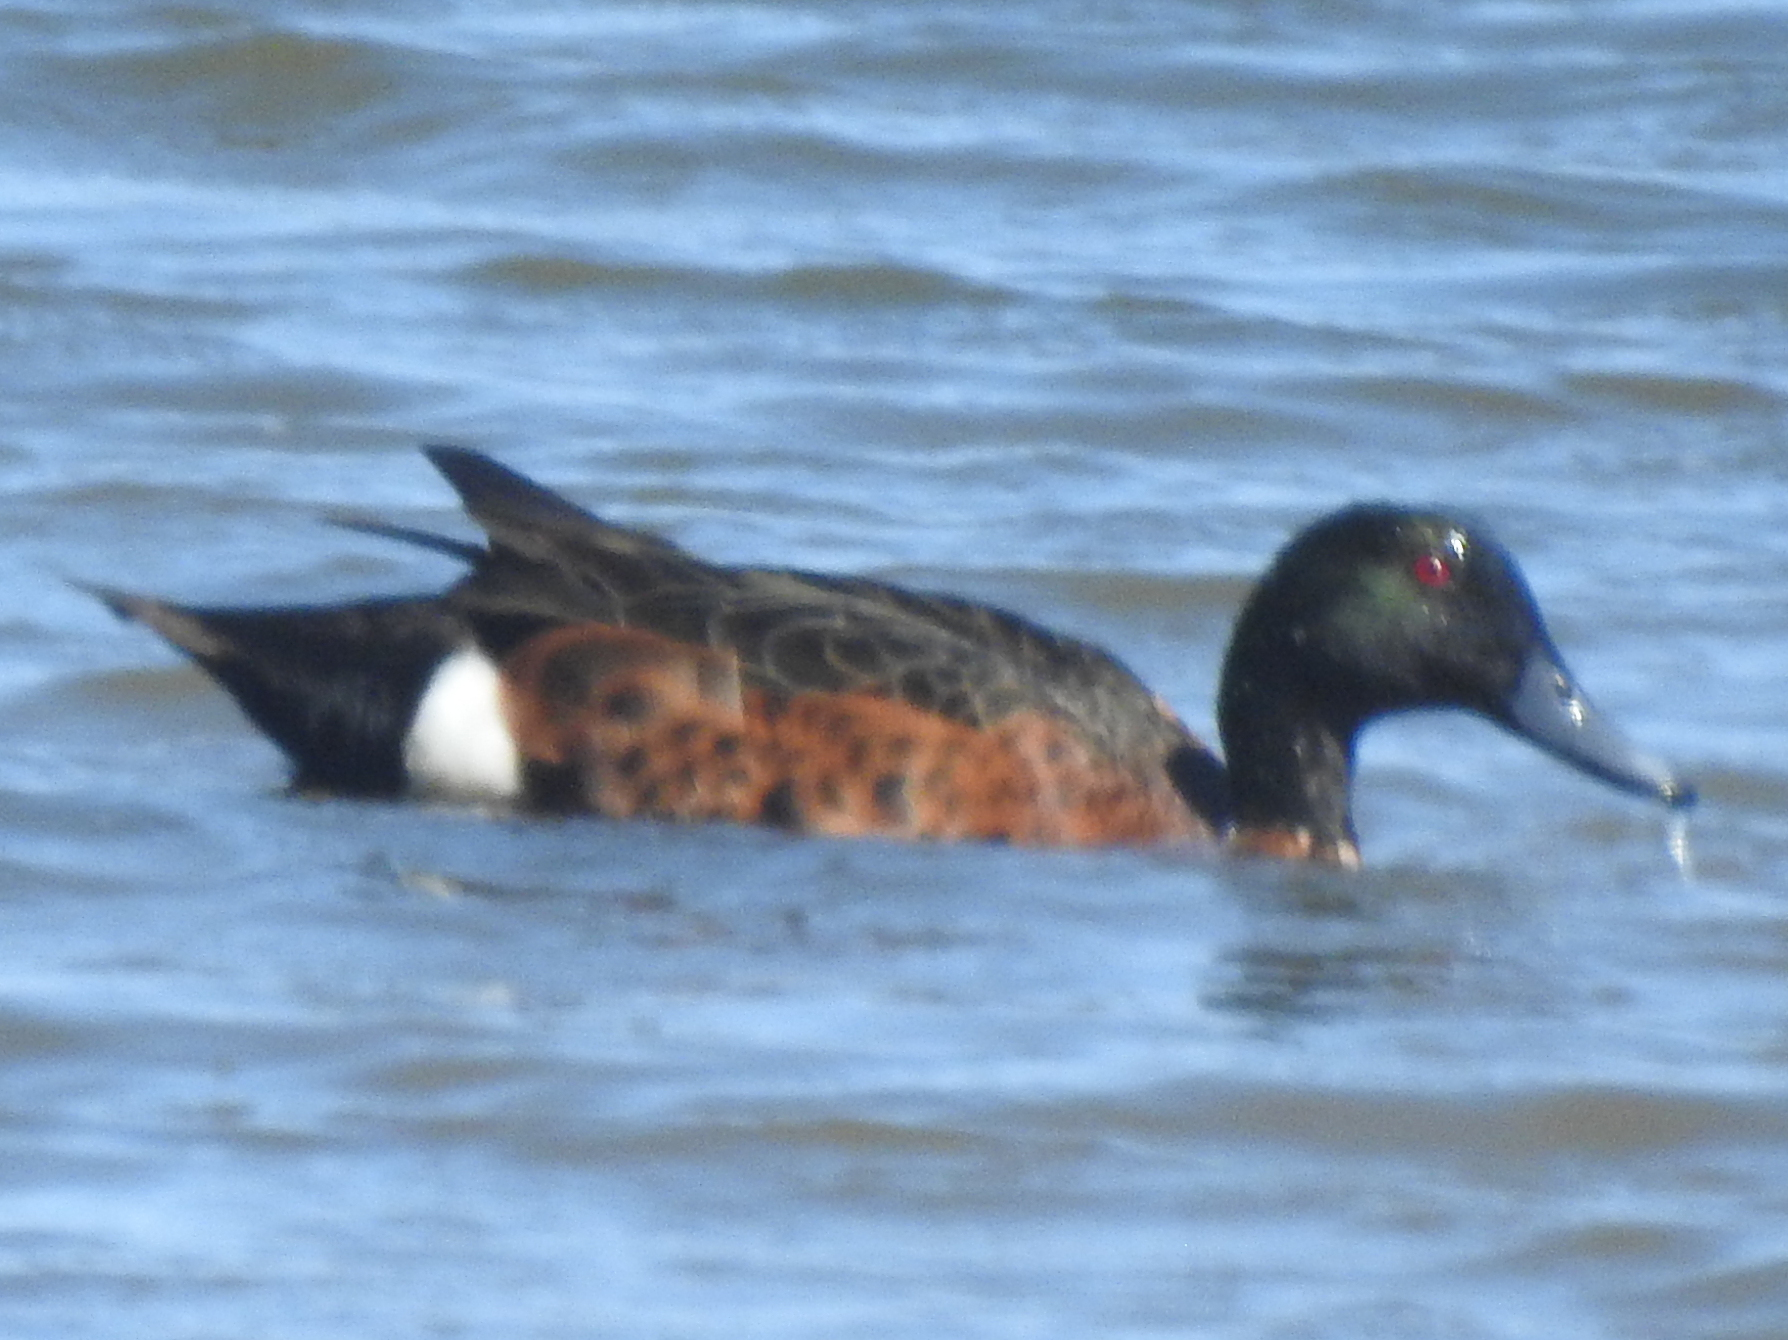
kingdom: Animalia
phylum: Chordata
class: Aves
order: Anseriformes
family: Anatidae
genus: Anas
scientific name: Anas castanea
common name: Chestnut teal
